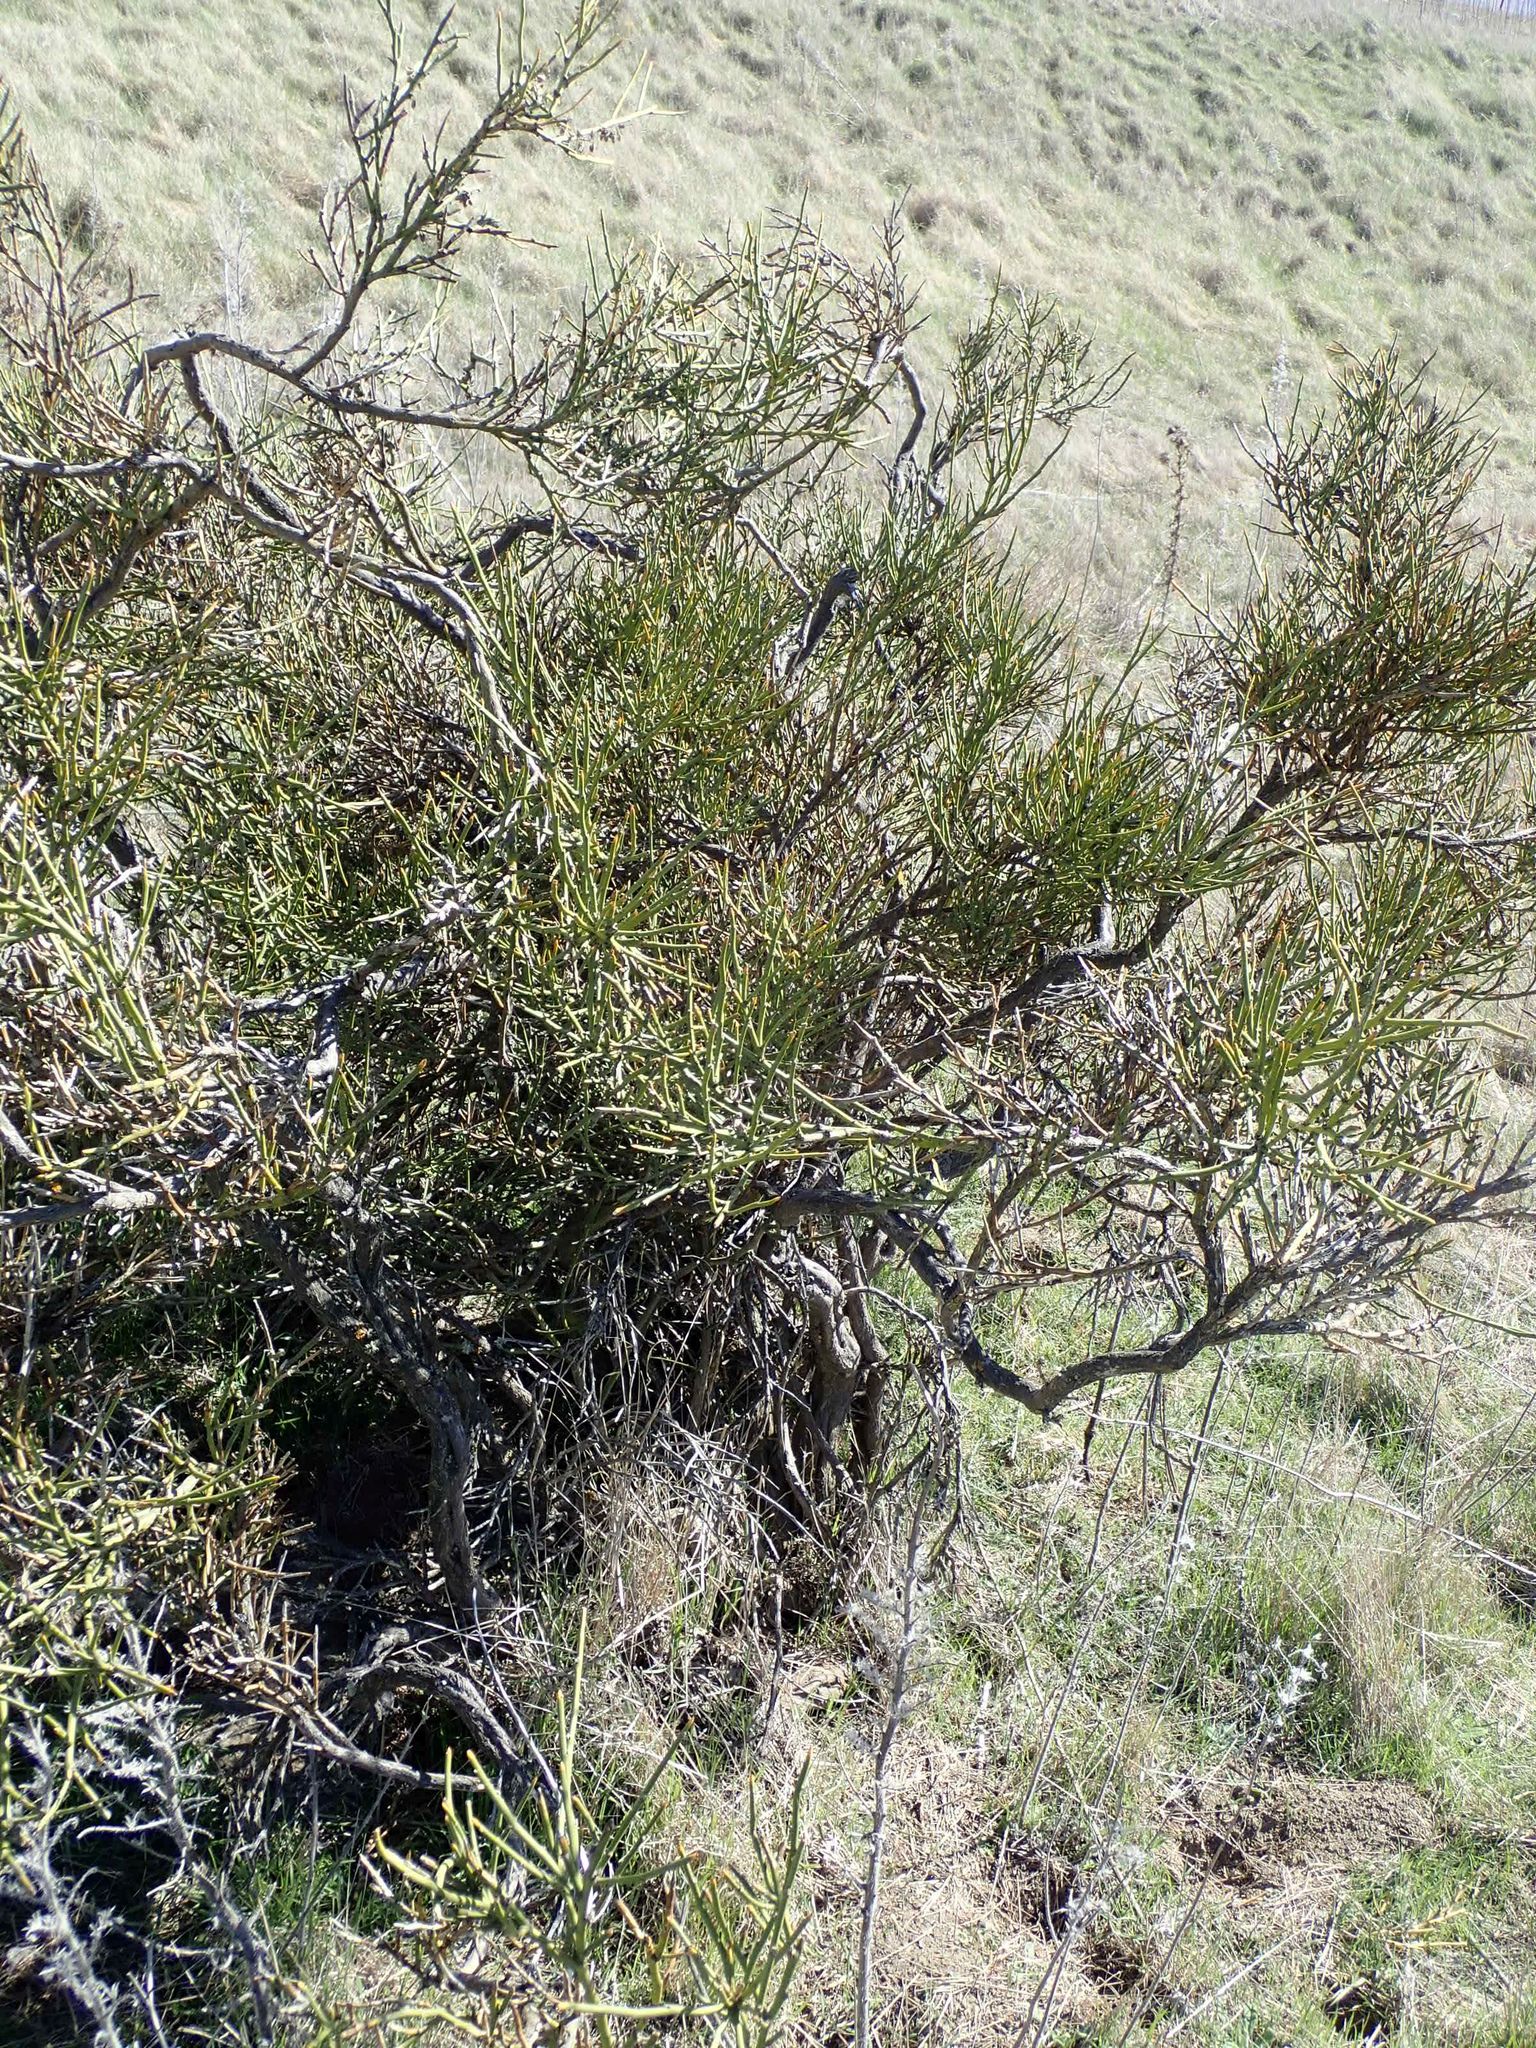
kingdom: Plantae
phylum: Tracheophyta
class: Magnoliopsida
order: Fabales
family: Fabaceae
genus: Carmichaelia
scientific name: Carmichaelia petriei
